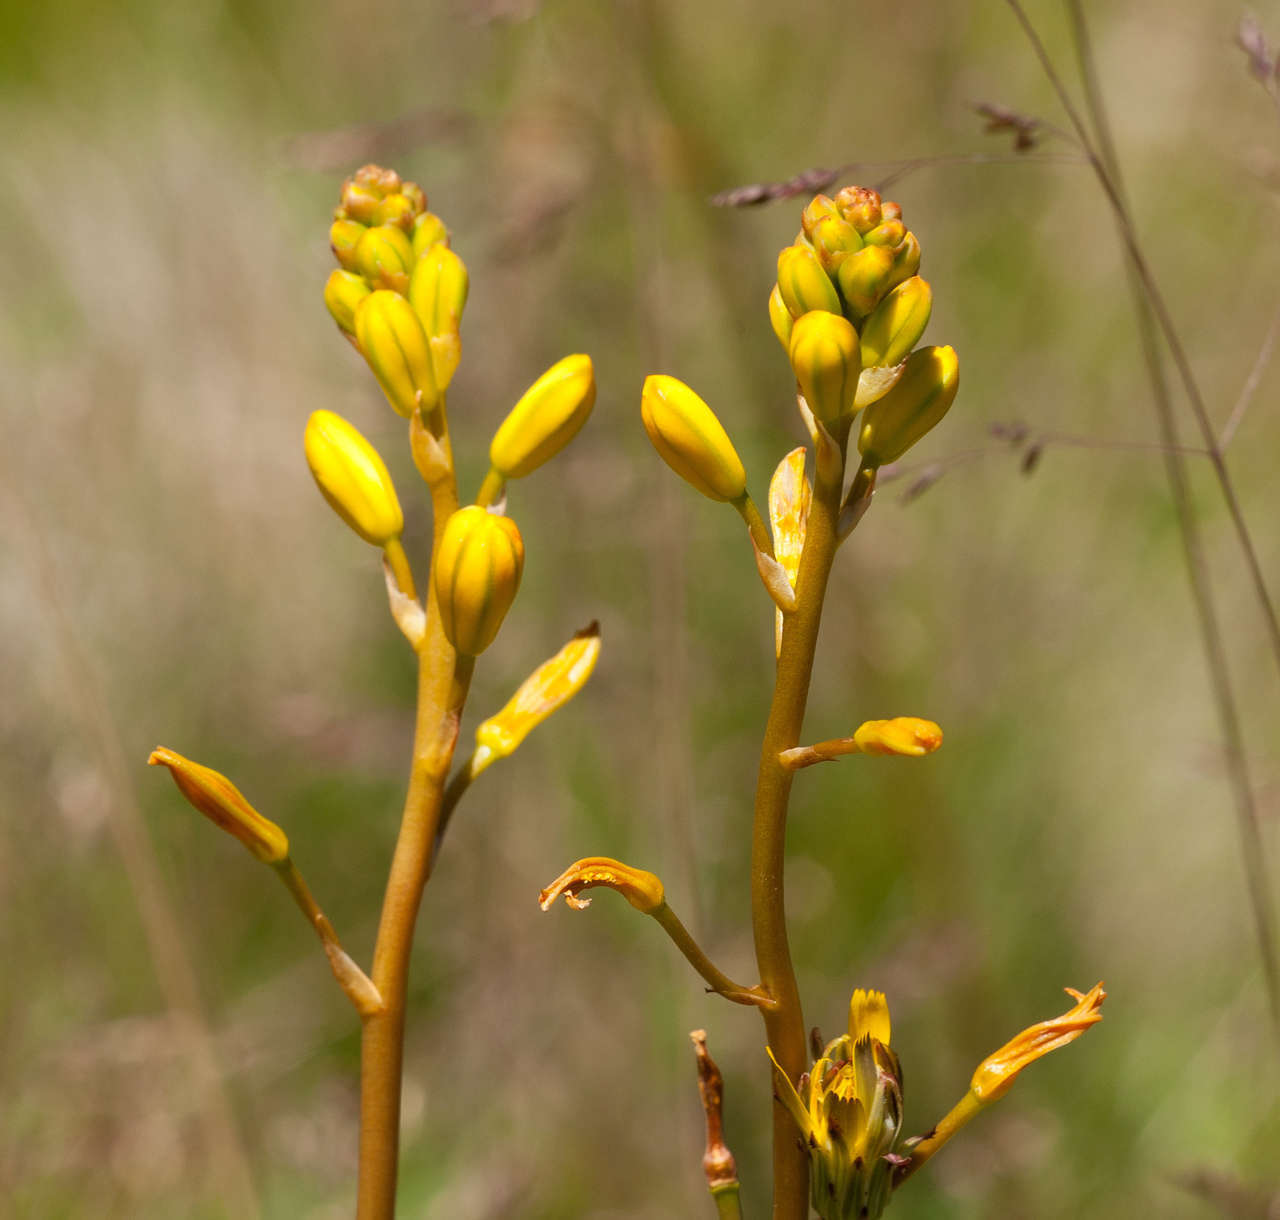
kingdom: Plantae
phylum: Tracheophyta
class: Liliopsida
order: Asparagales
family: Asphodelaceae
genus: Bulbine
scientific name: Bulbine bulbosa
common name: Golden-lily
